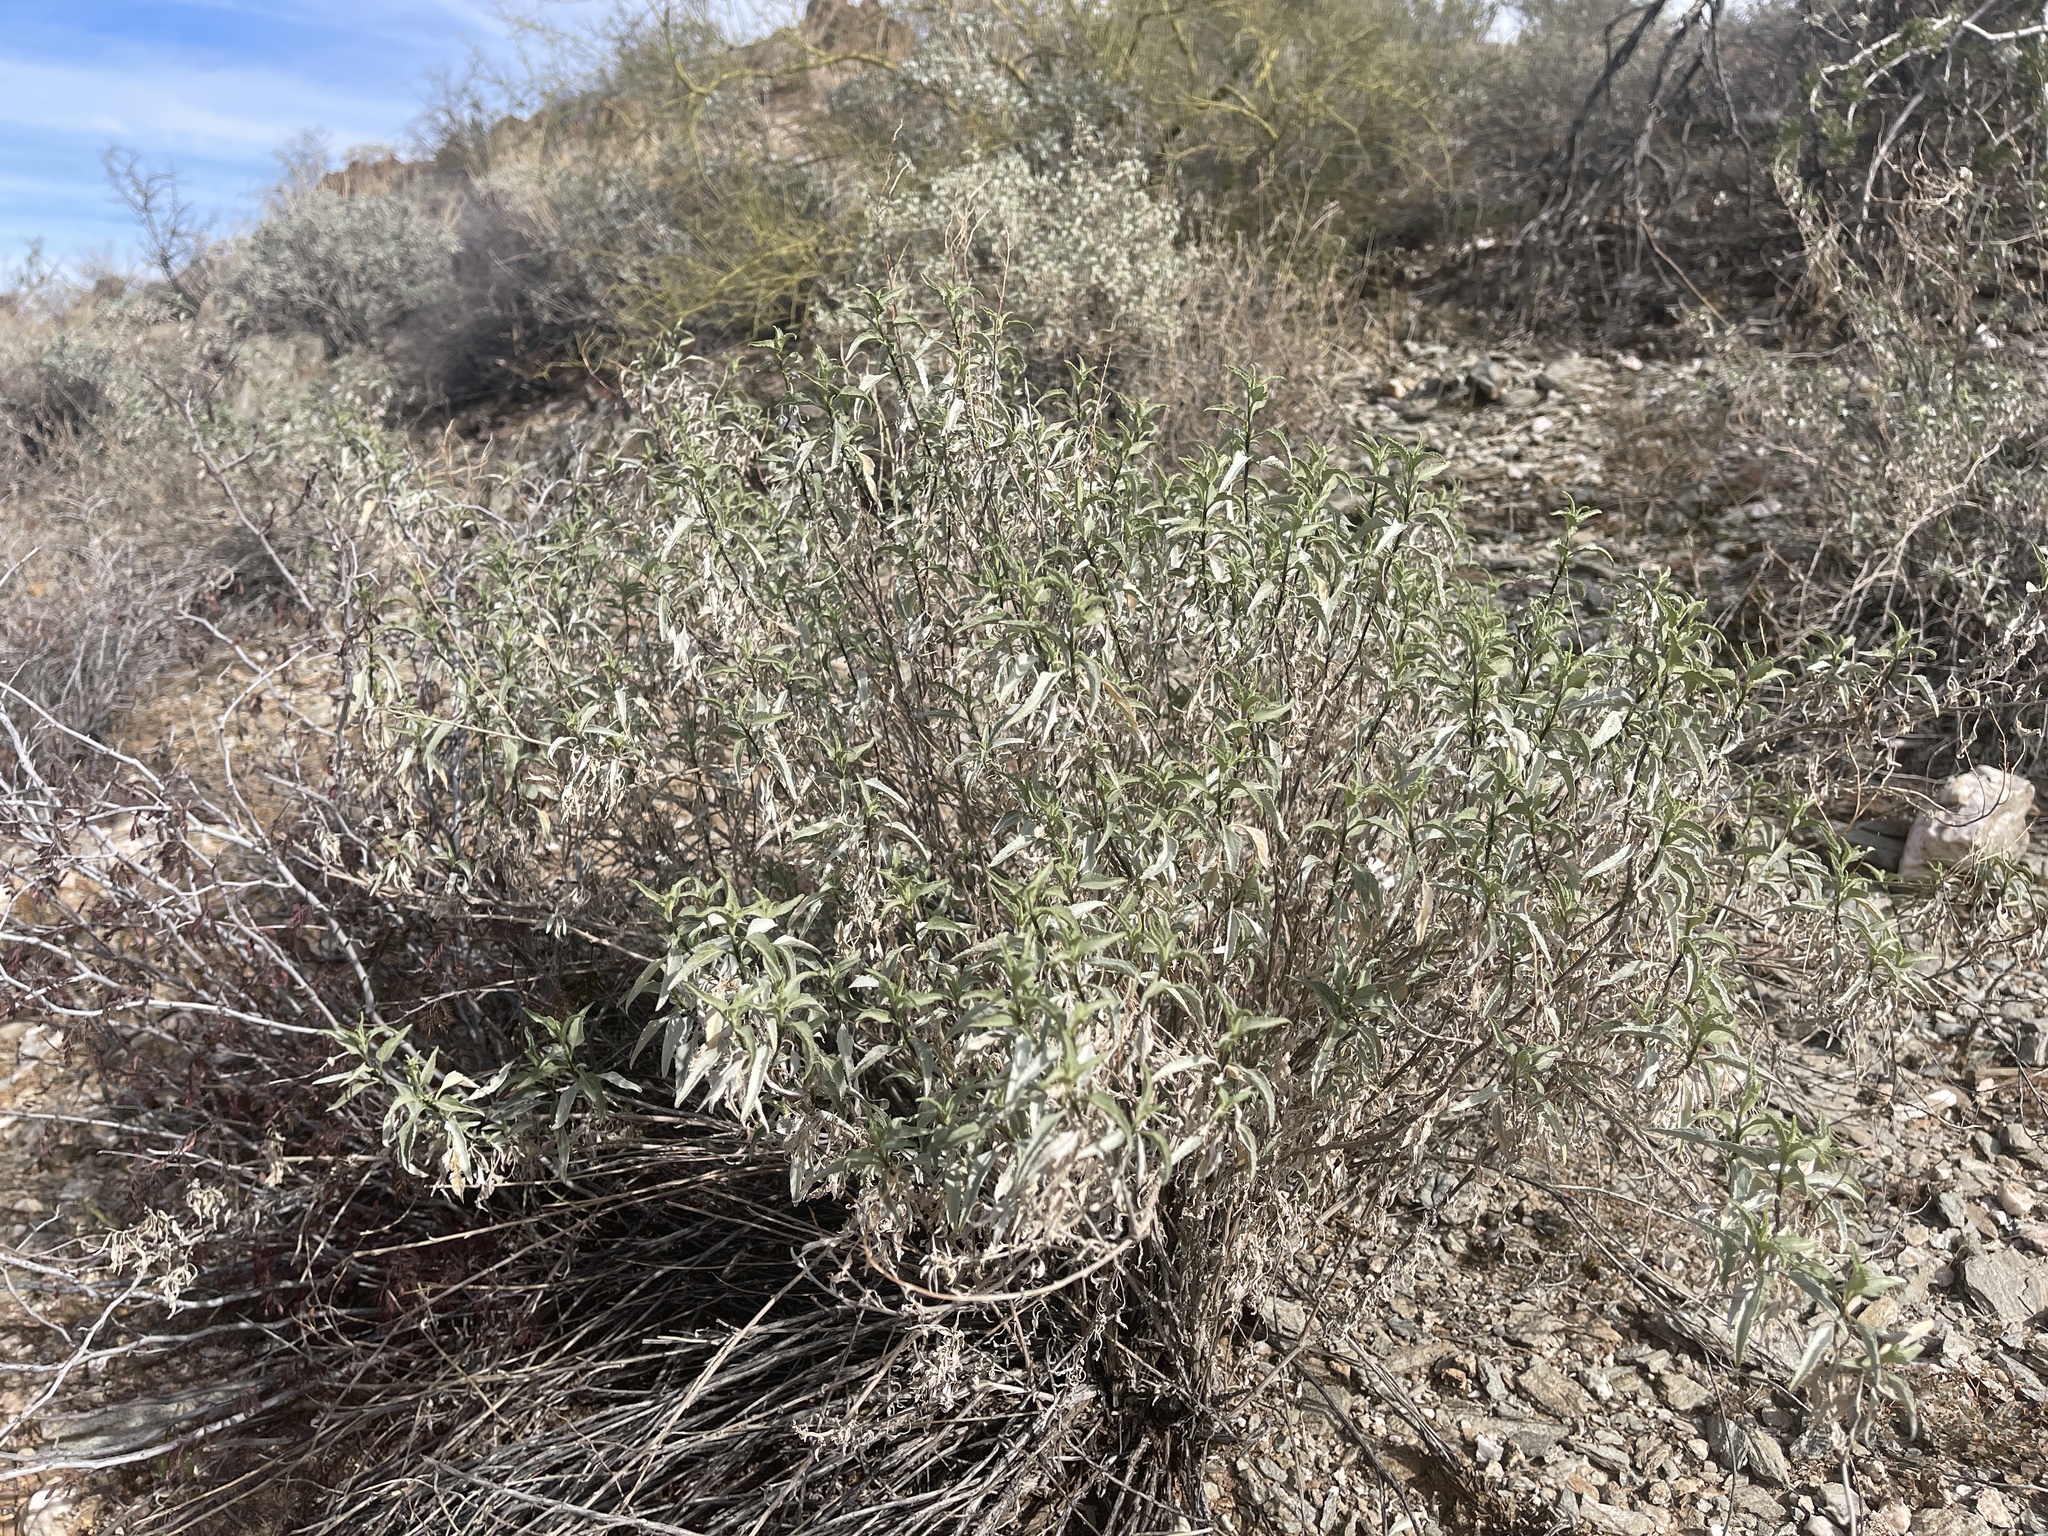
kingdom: Plantae
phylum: Tracheophyta
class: Magnoliopsida
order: Asterales
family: Asteraceae
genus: Ambrosia
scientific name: Ambrosia deltoidea
